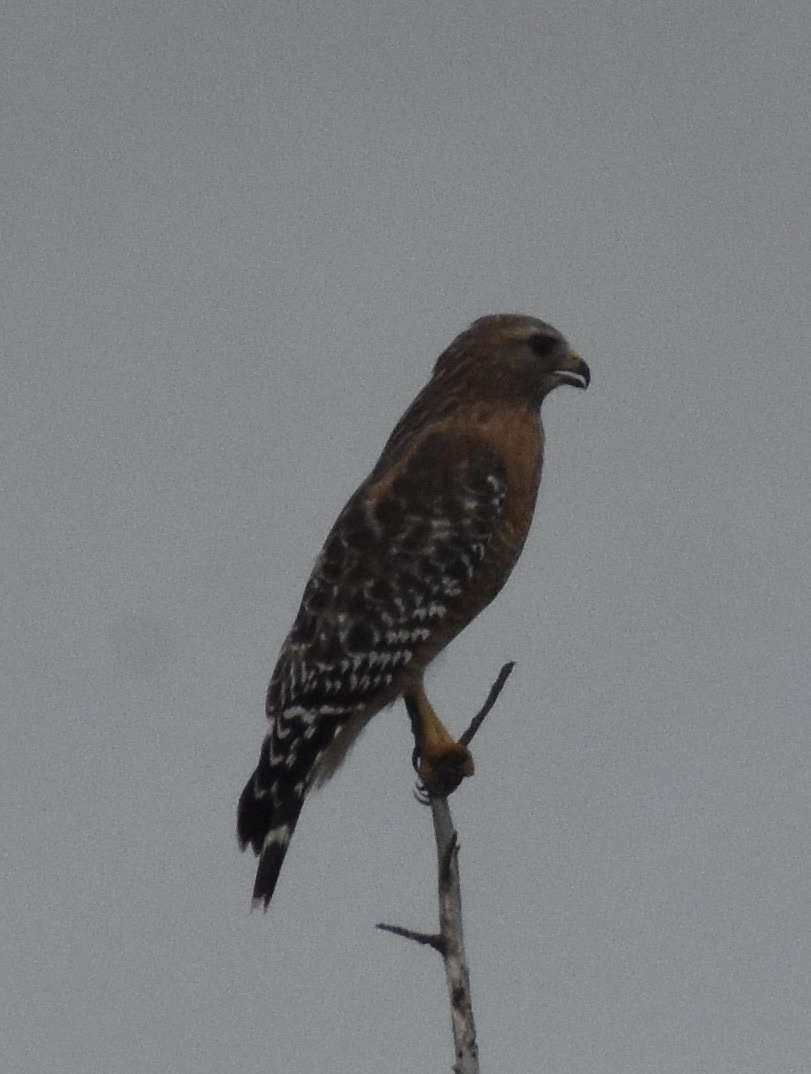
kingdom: Animalia
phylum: Chordata
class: Aves
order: Accipitriformes
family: Accipitridae
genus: Buteo
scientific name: Buteo lineatus
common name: Red-shouldered hawk
